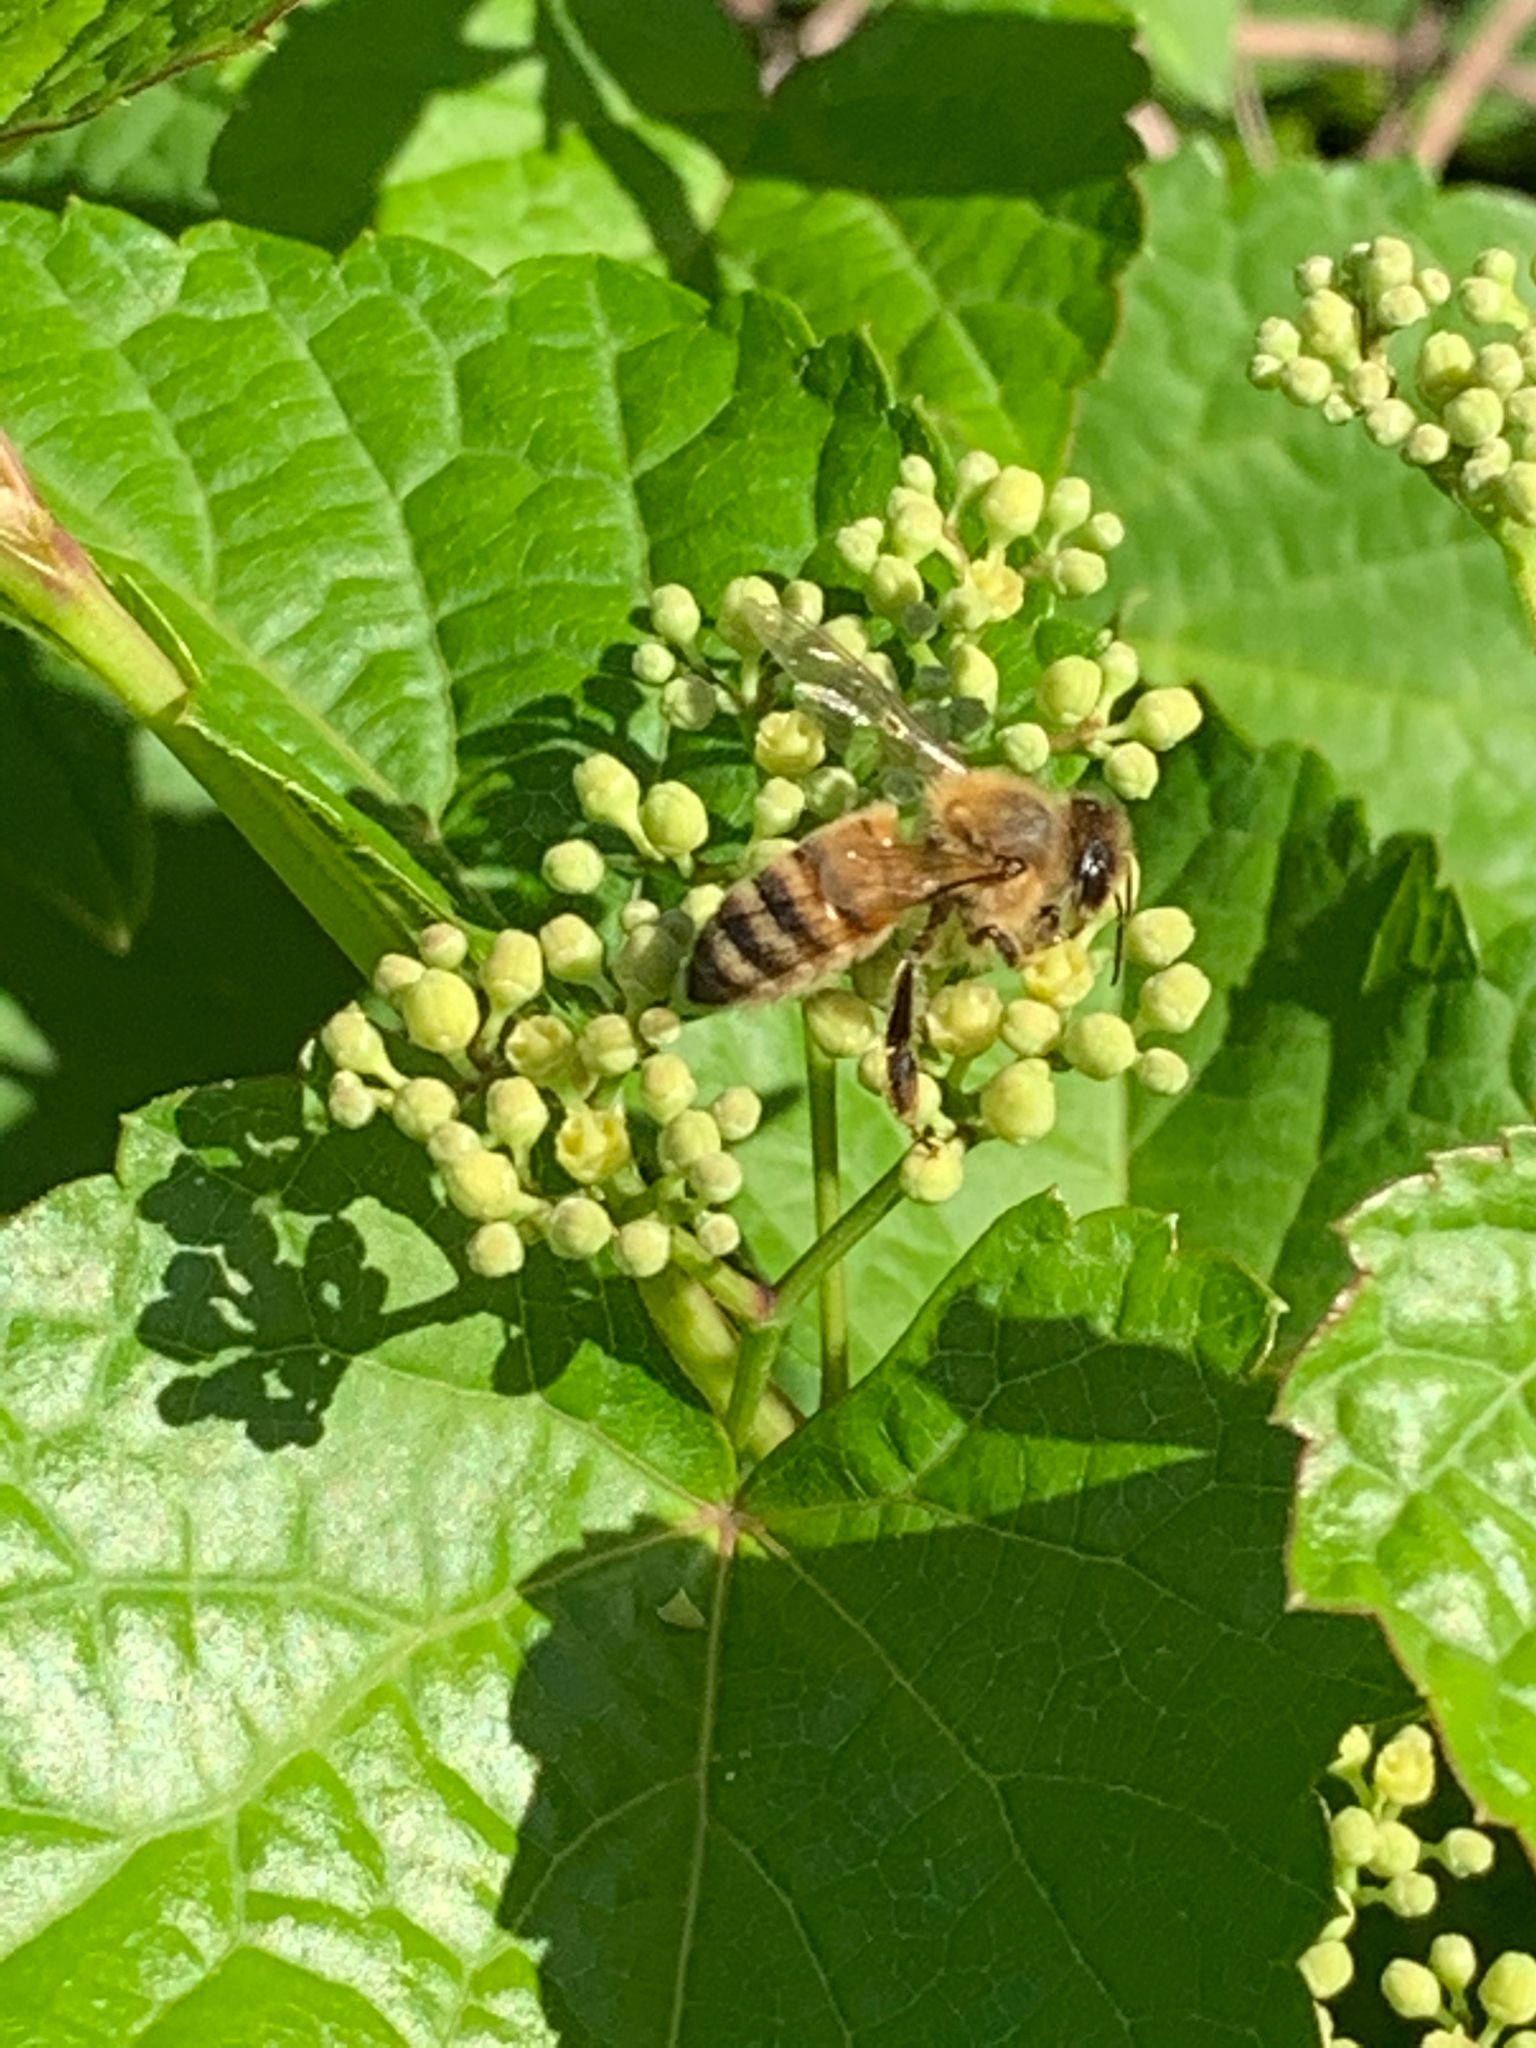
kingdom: Animalia
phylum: Arthropoda
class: Insecta
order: Hymenoptera
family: Apidae
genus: Apis
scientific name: Apis mellifera
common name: Honey bee
